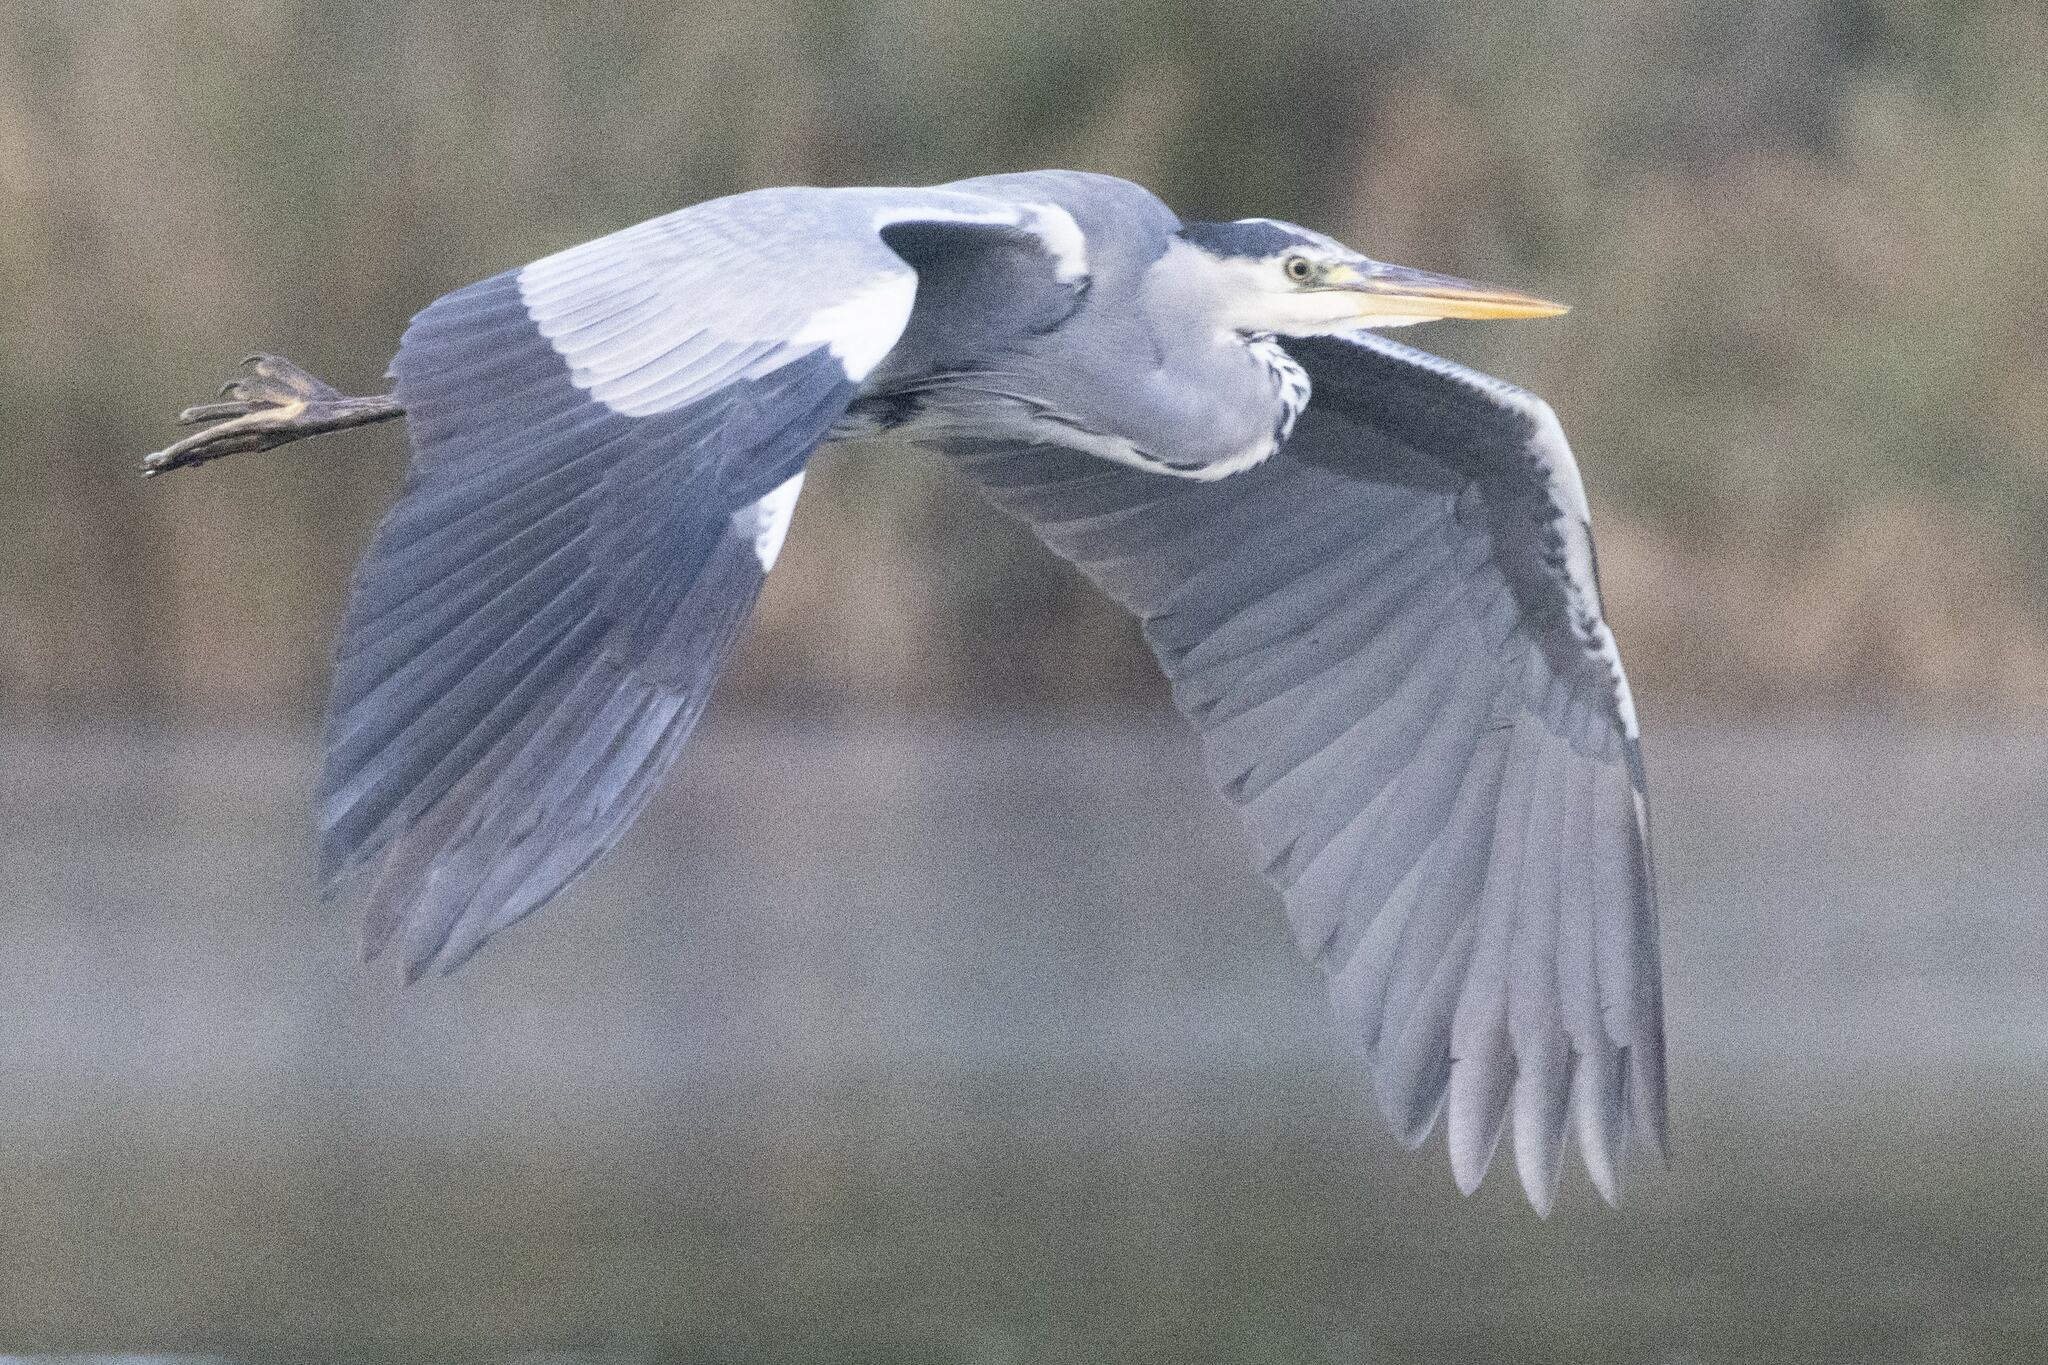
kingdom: Animalia
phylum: Chordata
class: Aves
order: Pelecaniformes
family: Ardeidae
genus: Ardea
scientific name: Ardea cinerea
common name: Grey heron
